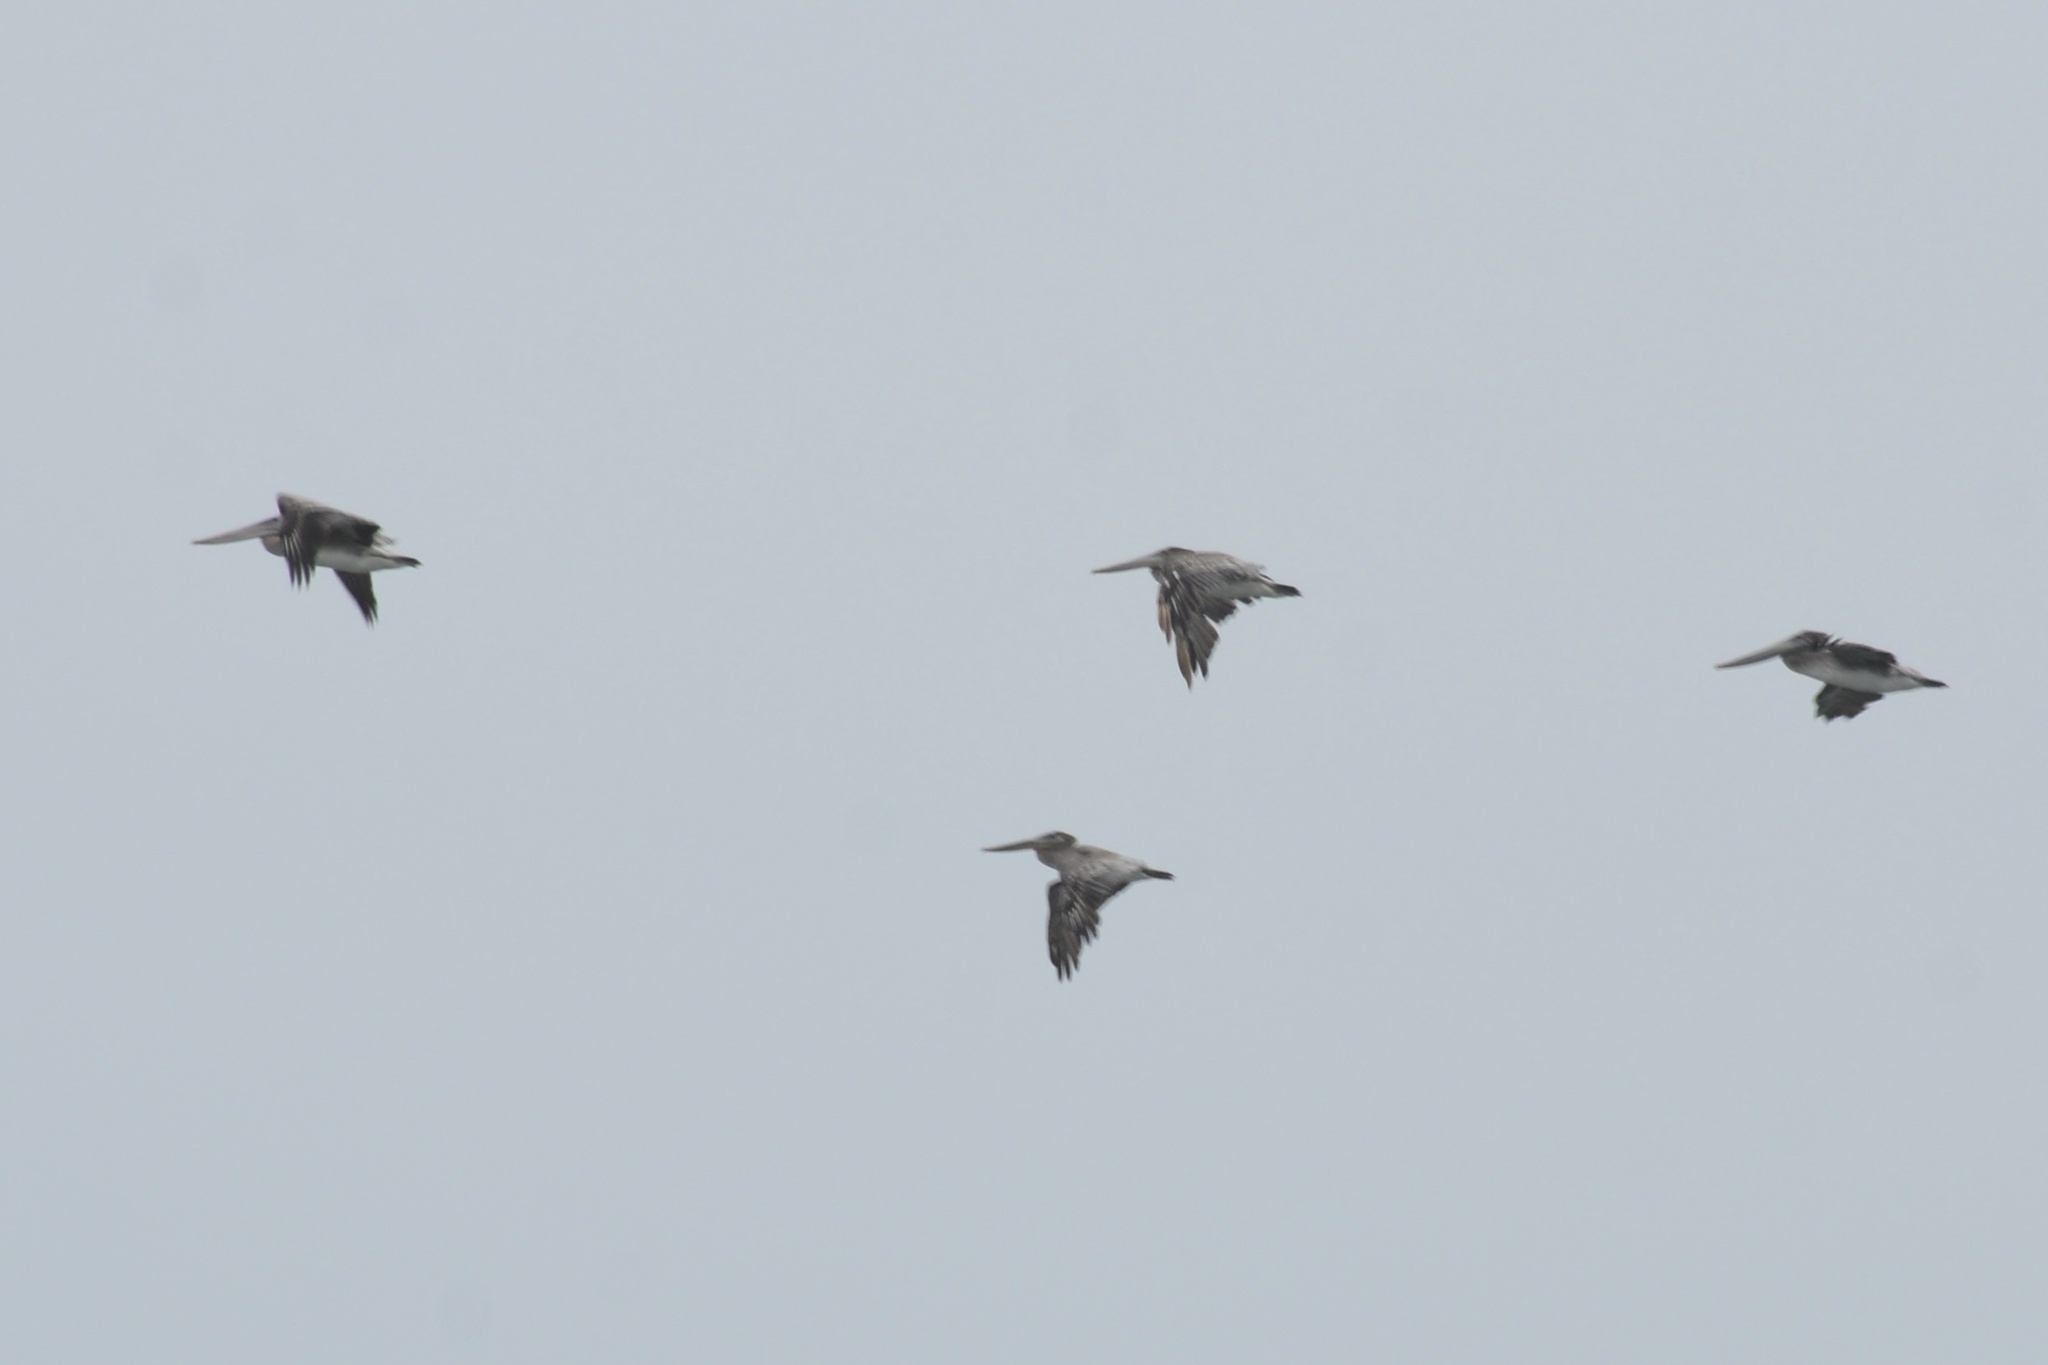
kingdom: Animalia
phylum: Chordata
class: Aves
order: Pelecaniformes
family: Pelecanidae
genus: Pelecanus
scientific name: Pelecanus occidentalis
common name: Brown pelican
